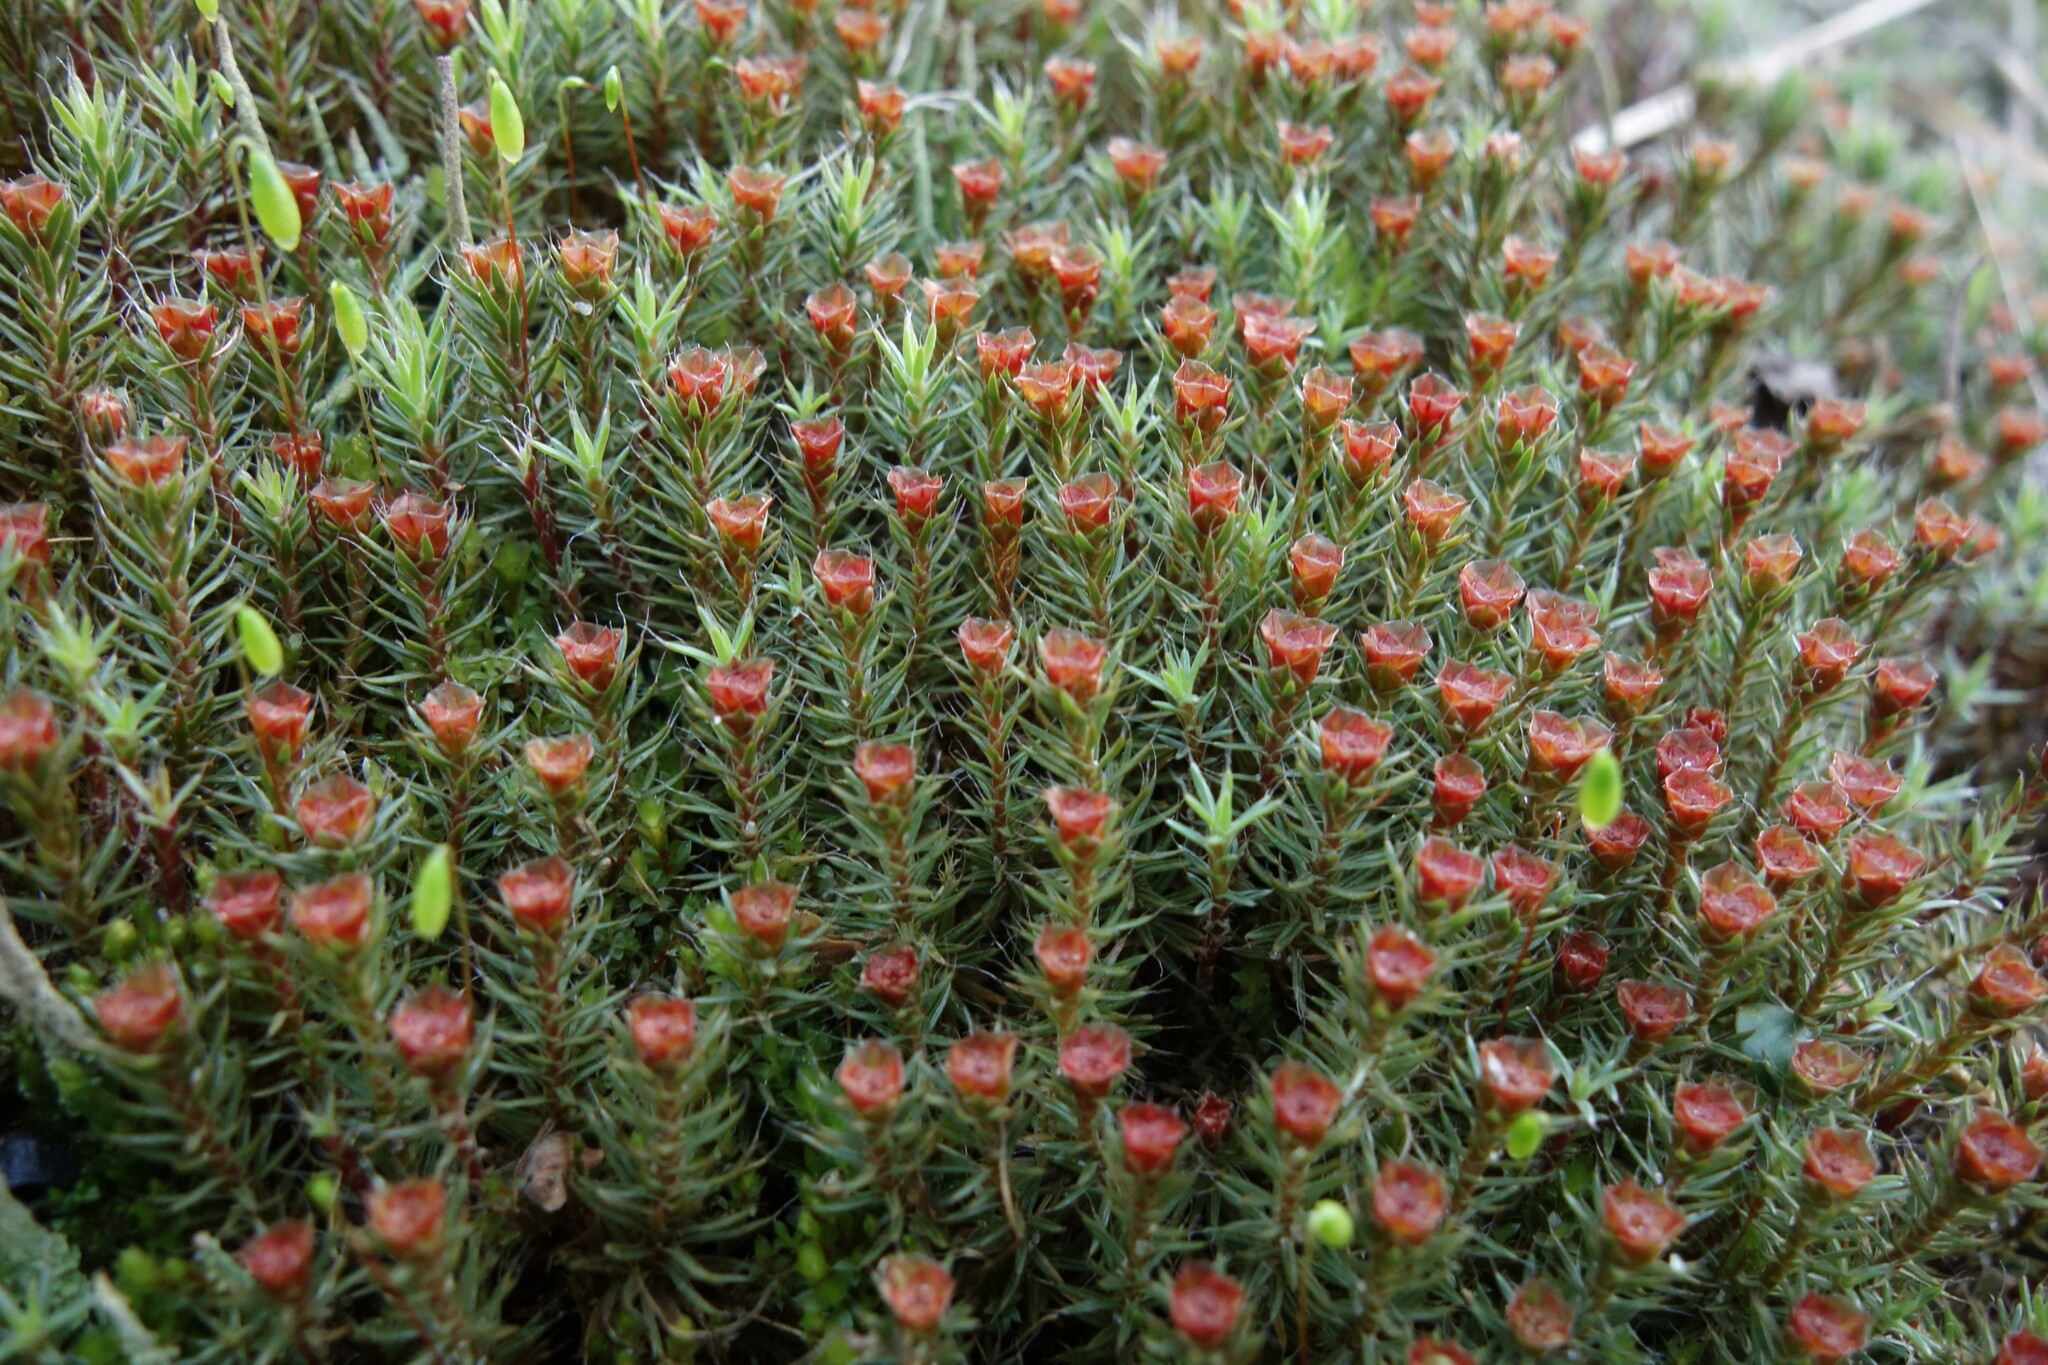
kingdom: Plantae
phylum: Bryophyta
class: Polytrichopsida
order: Polytrichales
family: Polytrichaceae
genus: Polytrichum
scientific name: Polytrichum piliferum
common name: Bristly haircap
